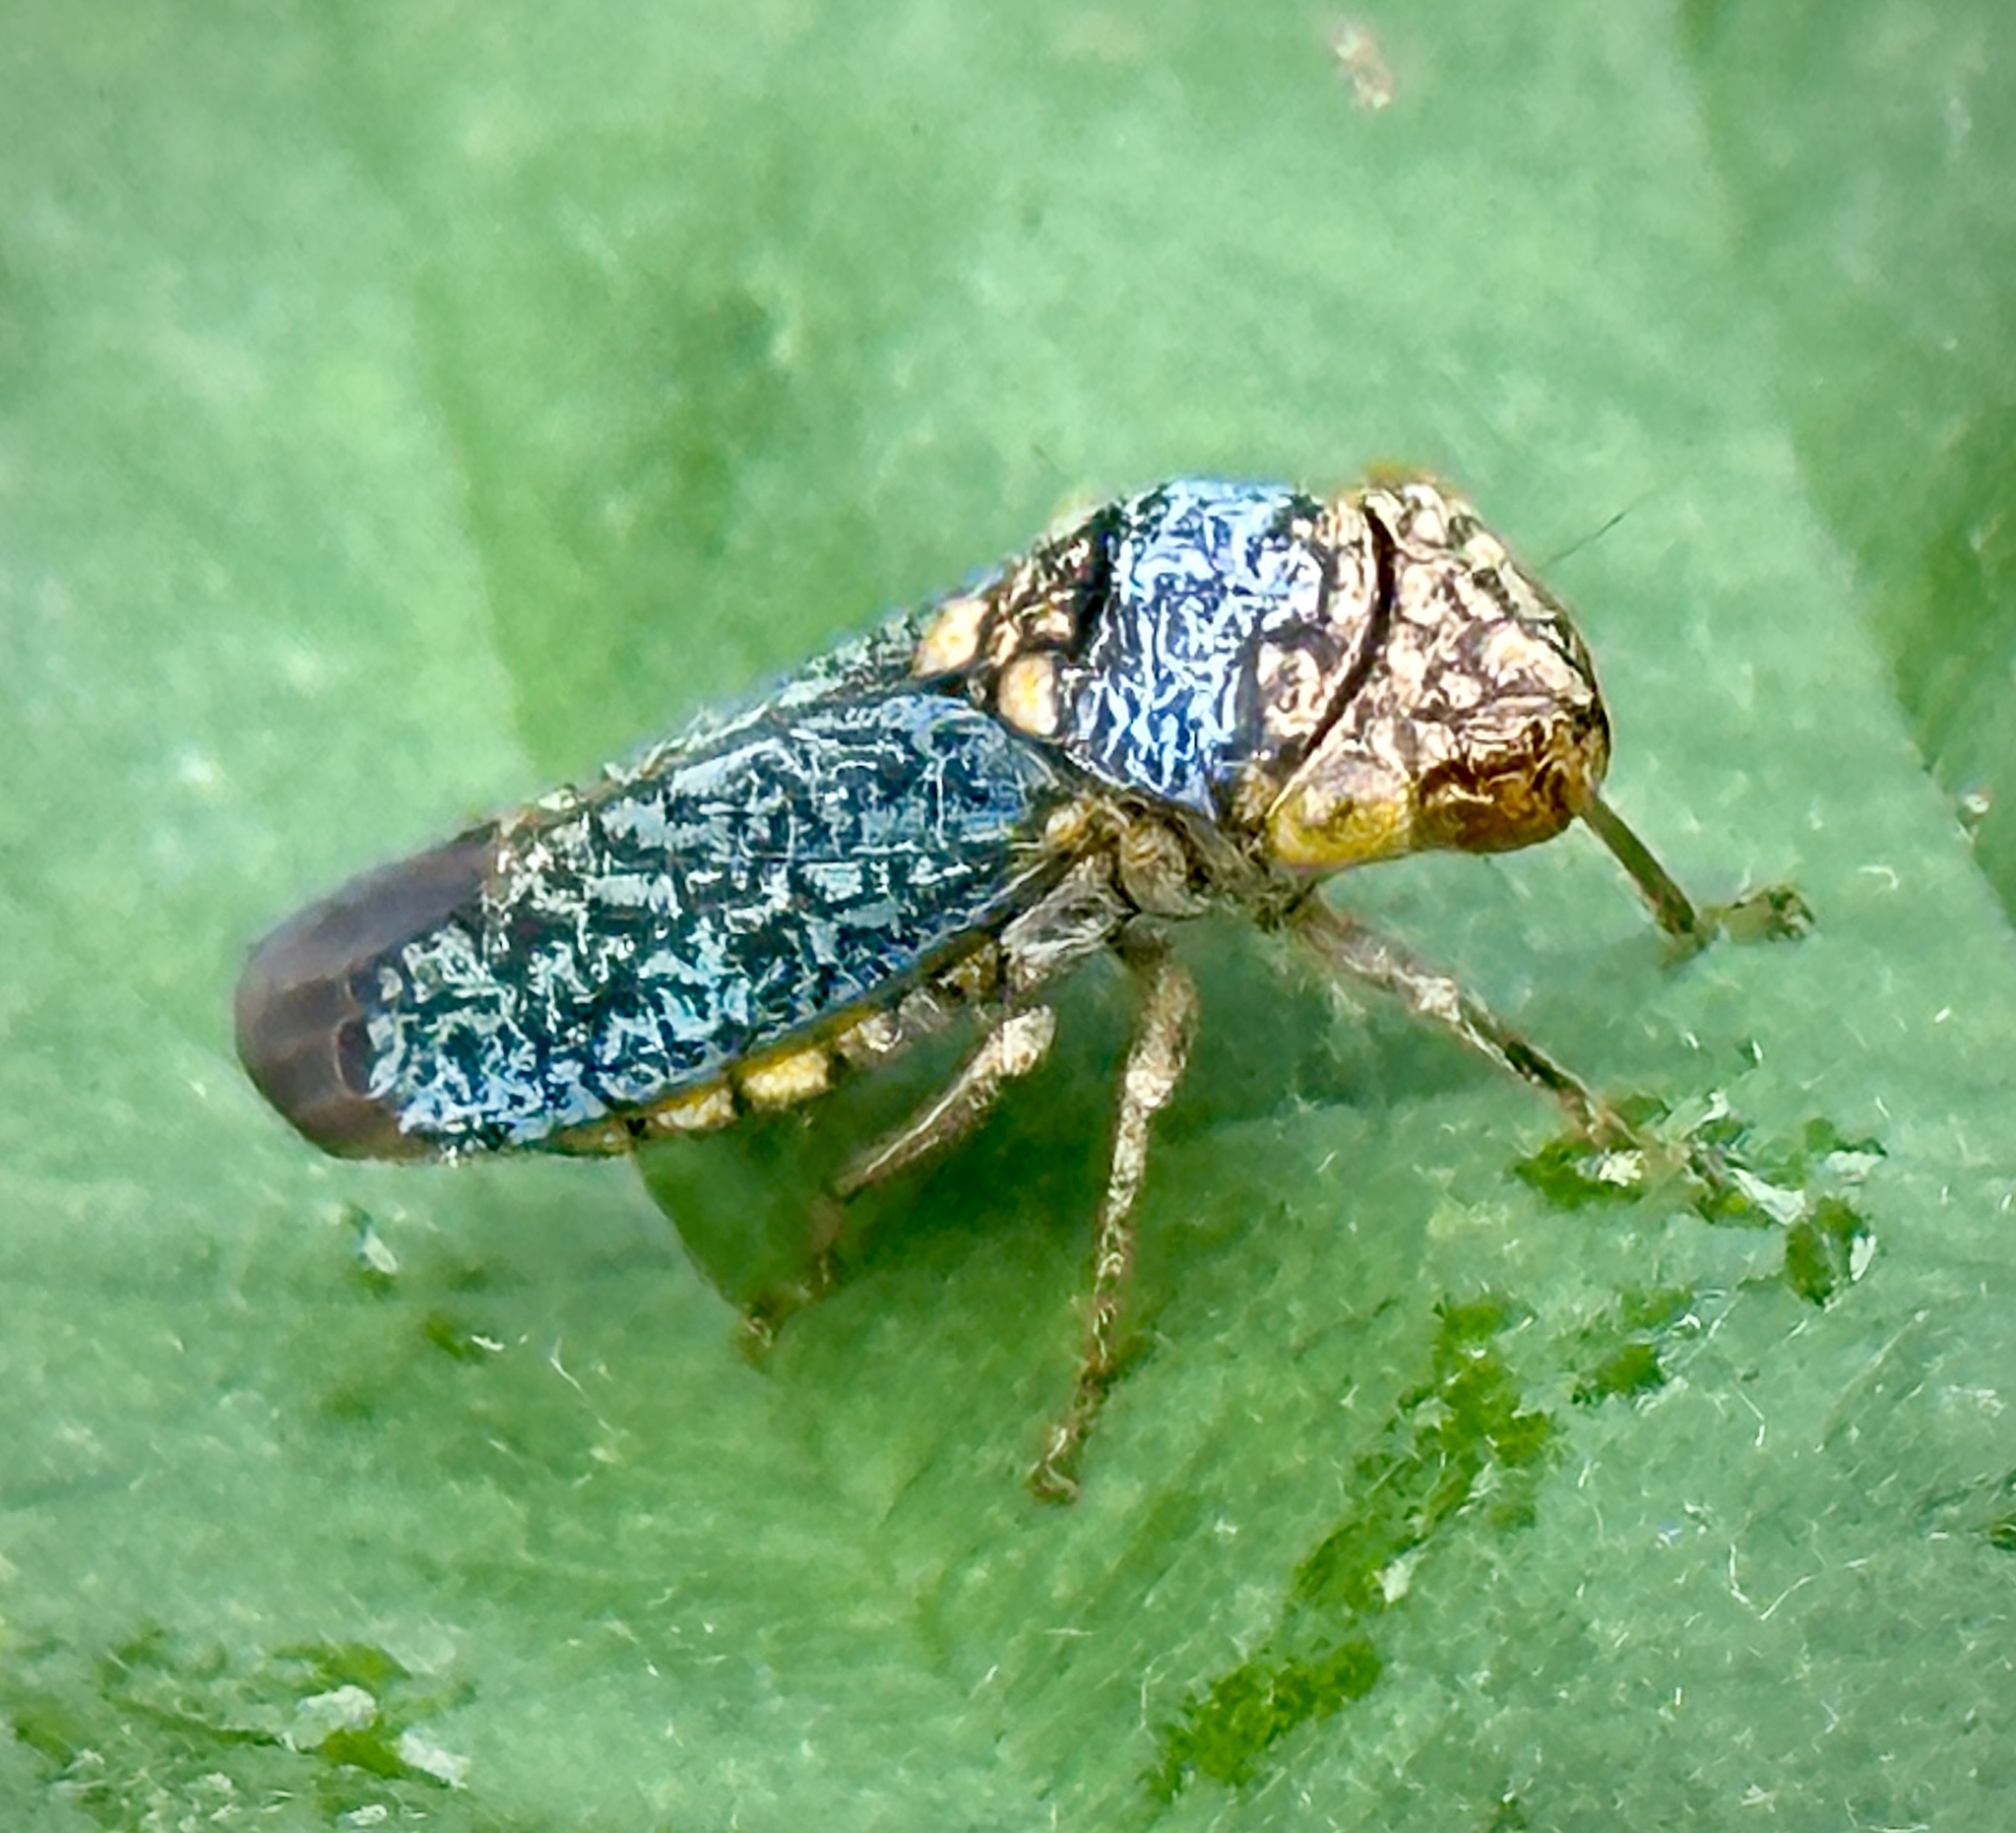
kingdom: Animalia
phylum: Arthropoda
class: Insecta
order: Hemiptera
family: Cicadellidae
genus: Oncometopia
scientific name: Oncometopia orbona
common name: Broad-headed sharpshooter
